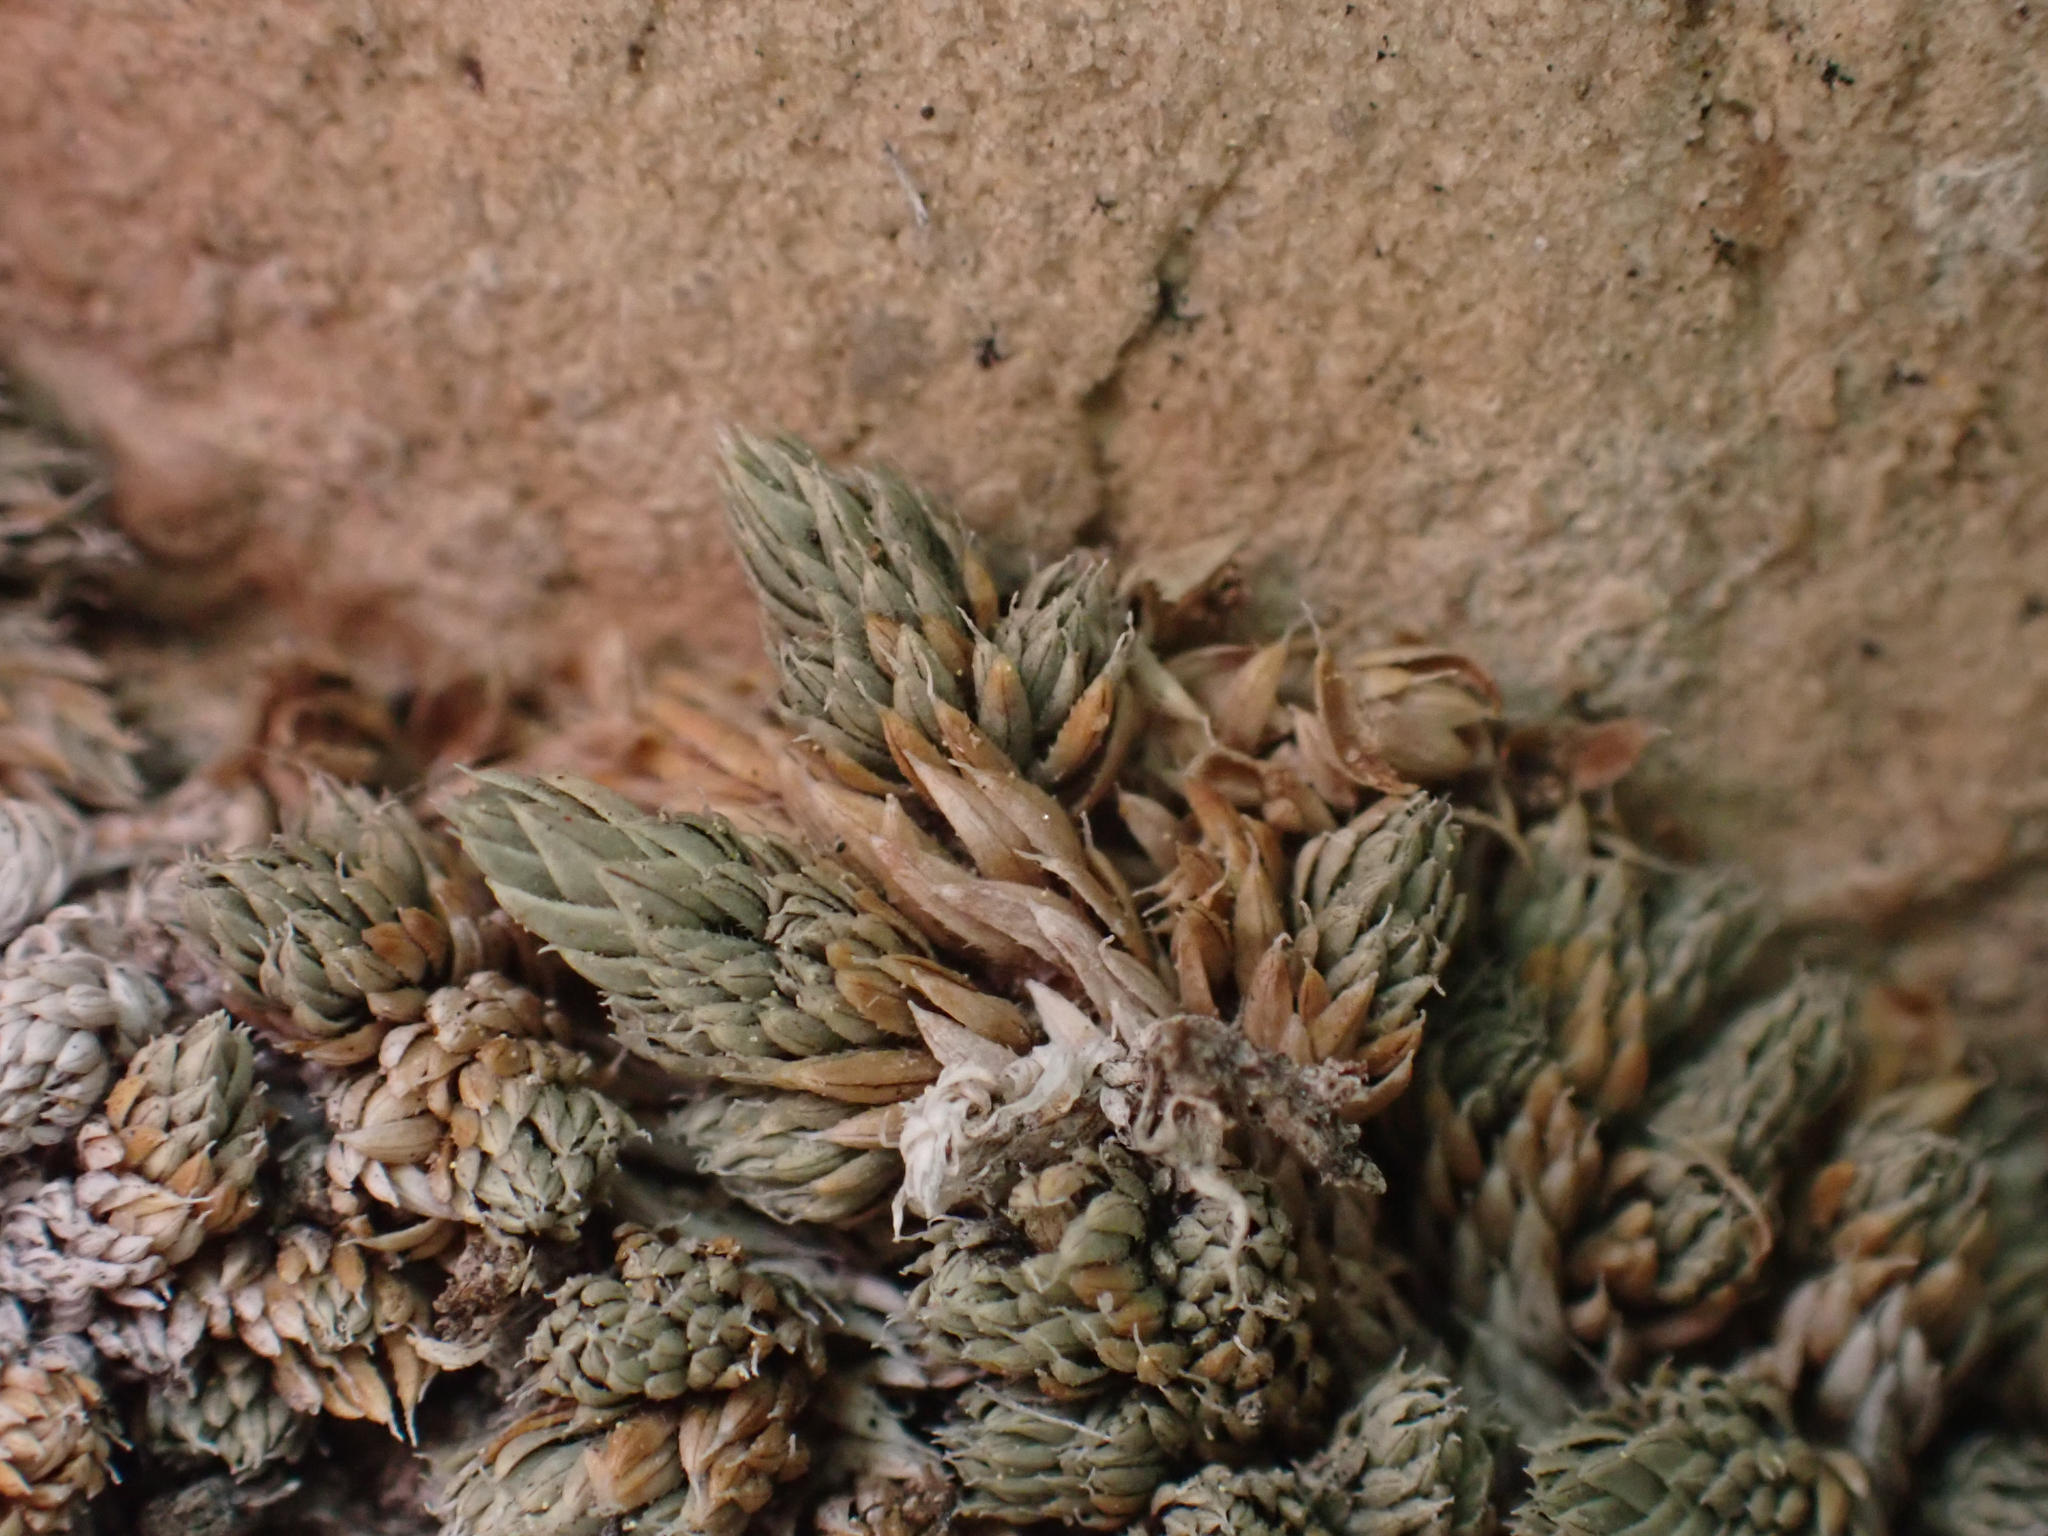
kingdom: Plantae
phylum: Tracheophyta
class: Lycopodiopsida
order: Selaginellales
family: Selaginellaceae
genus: Selaginella
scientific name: Selaginella watsonii
